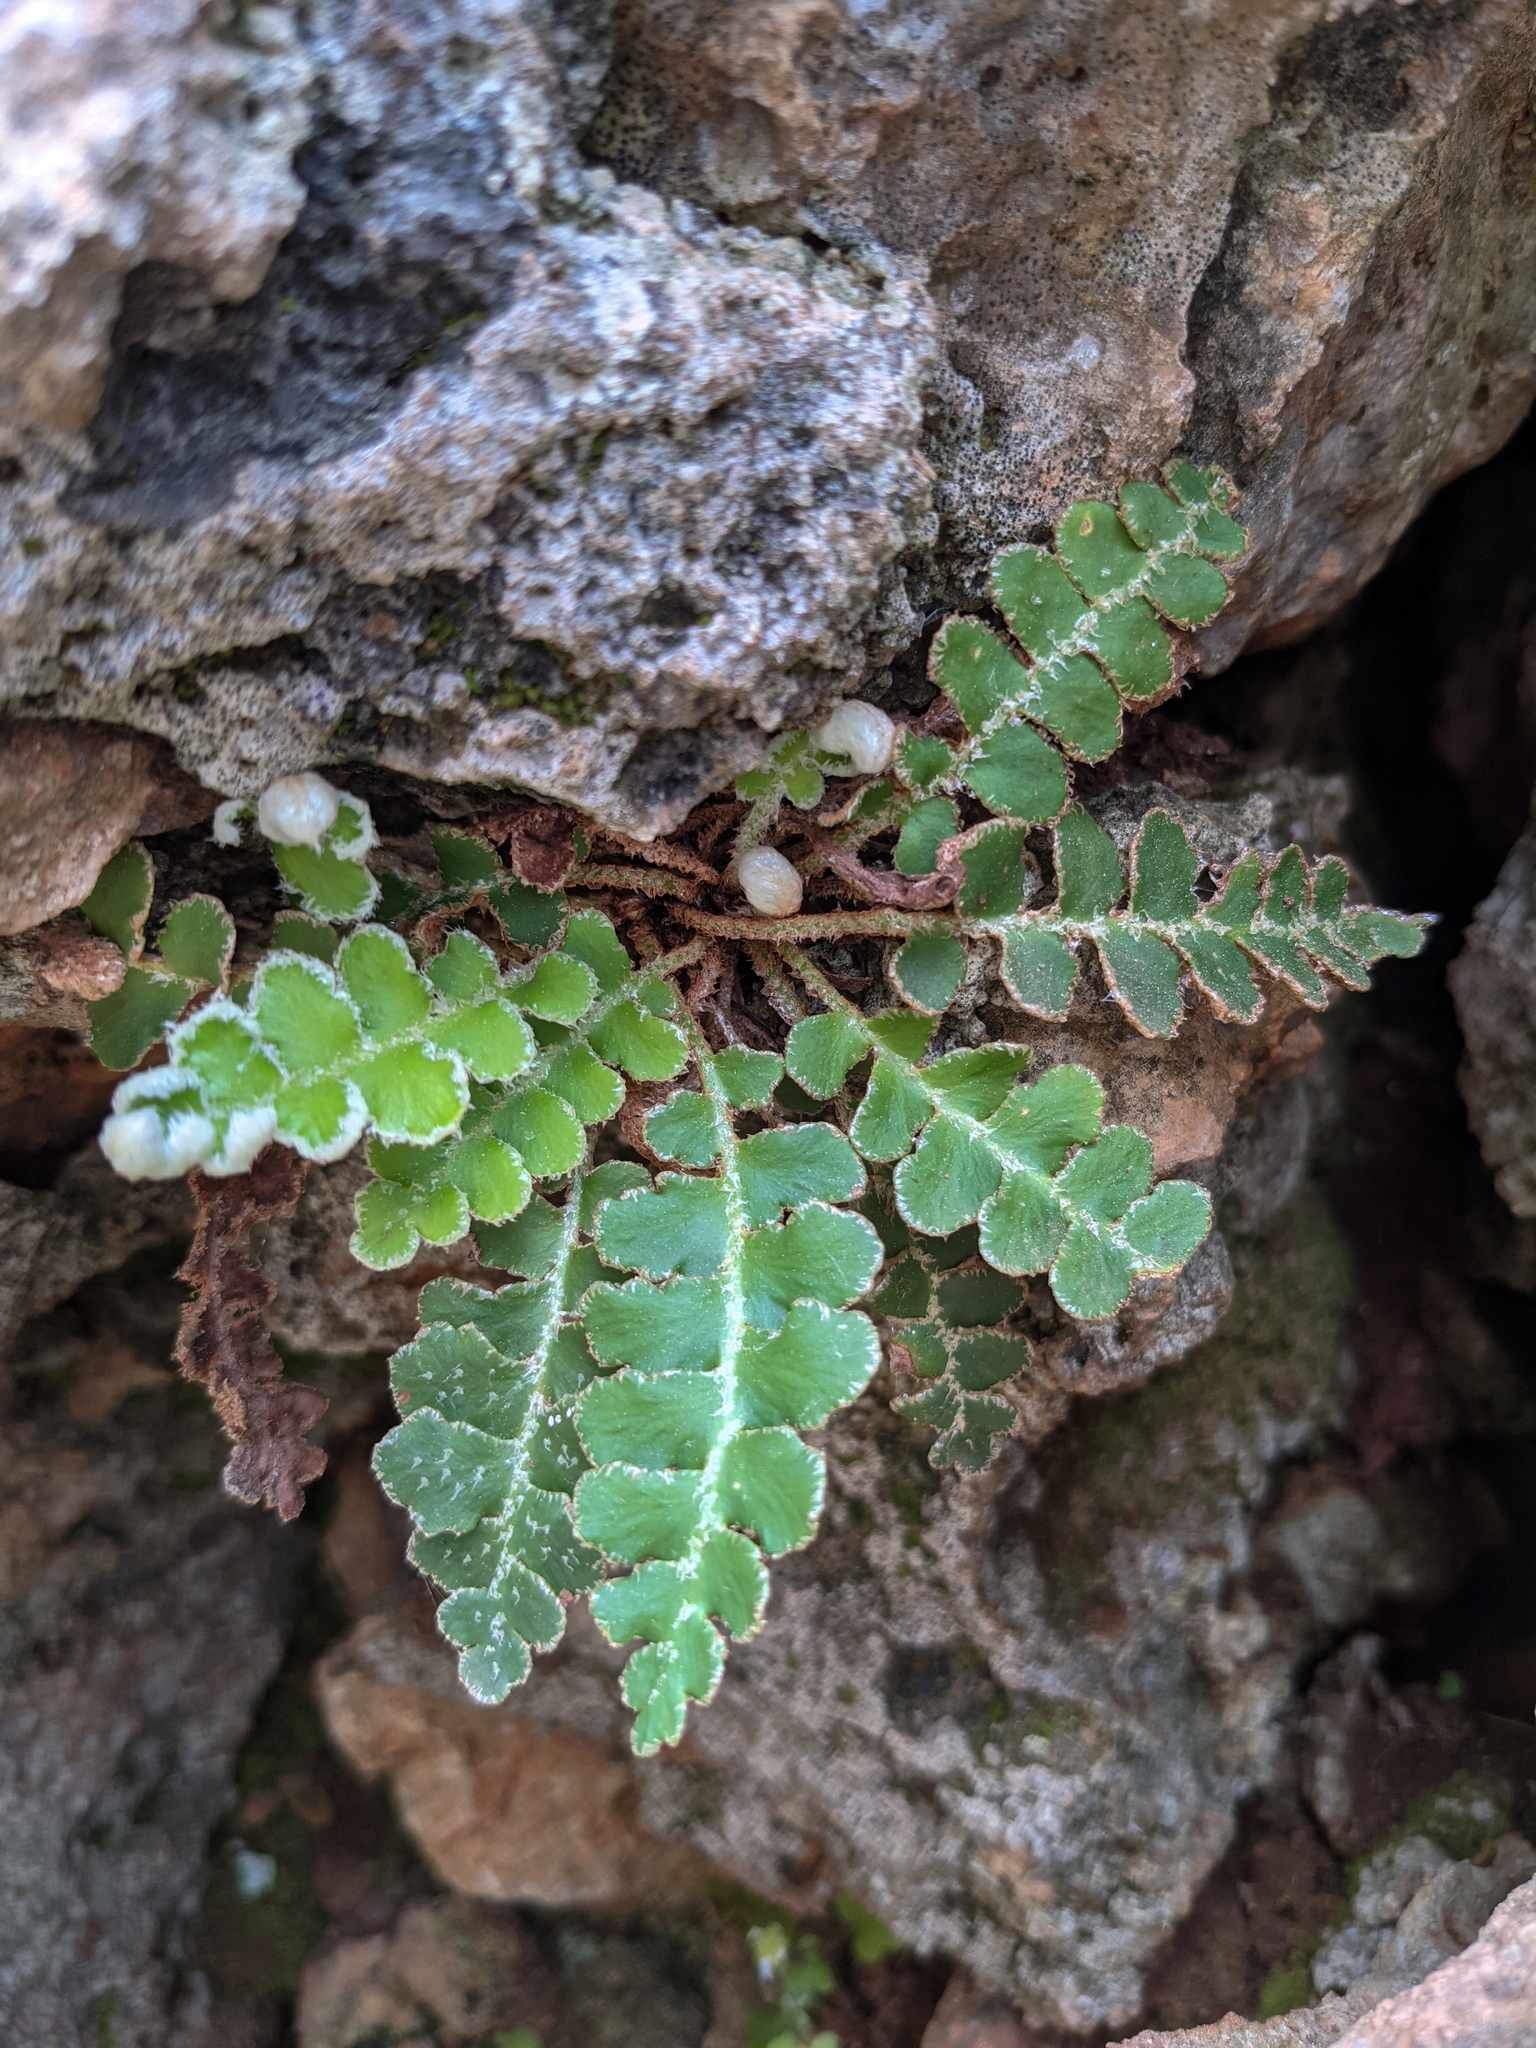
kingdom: Plantae
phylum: Tracheophyta
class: Polypodiopsida
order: Polypodiales
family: Aspleniaceae
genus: Asplenium
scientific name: Asplenium ceterach
